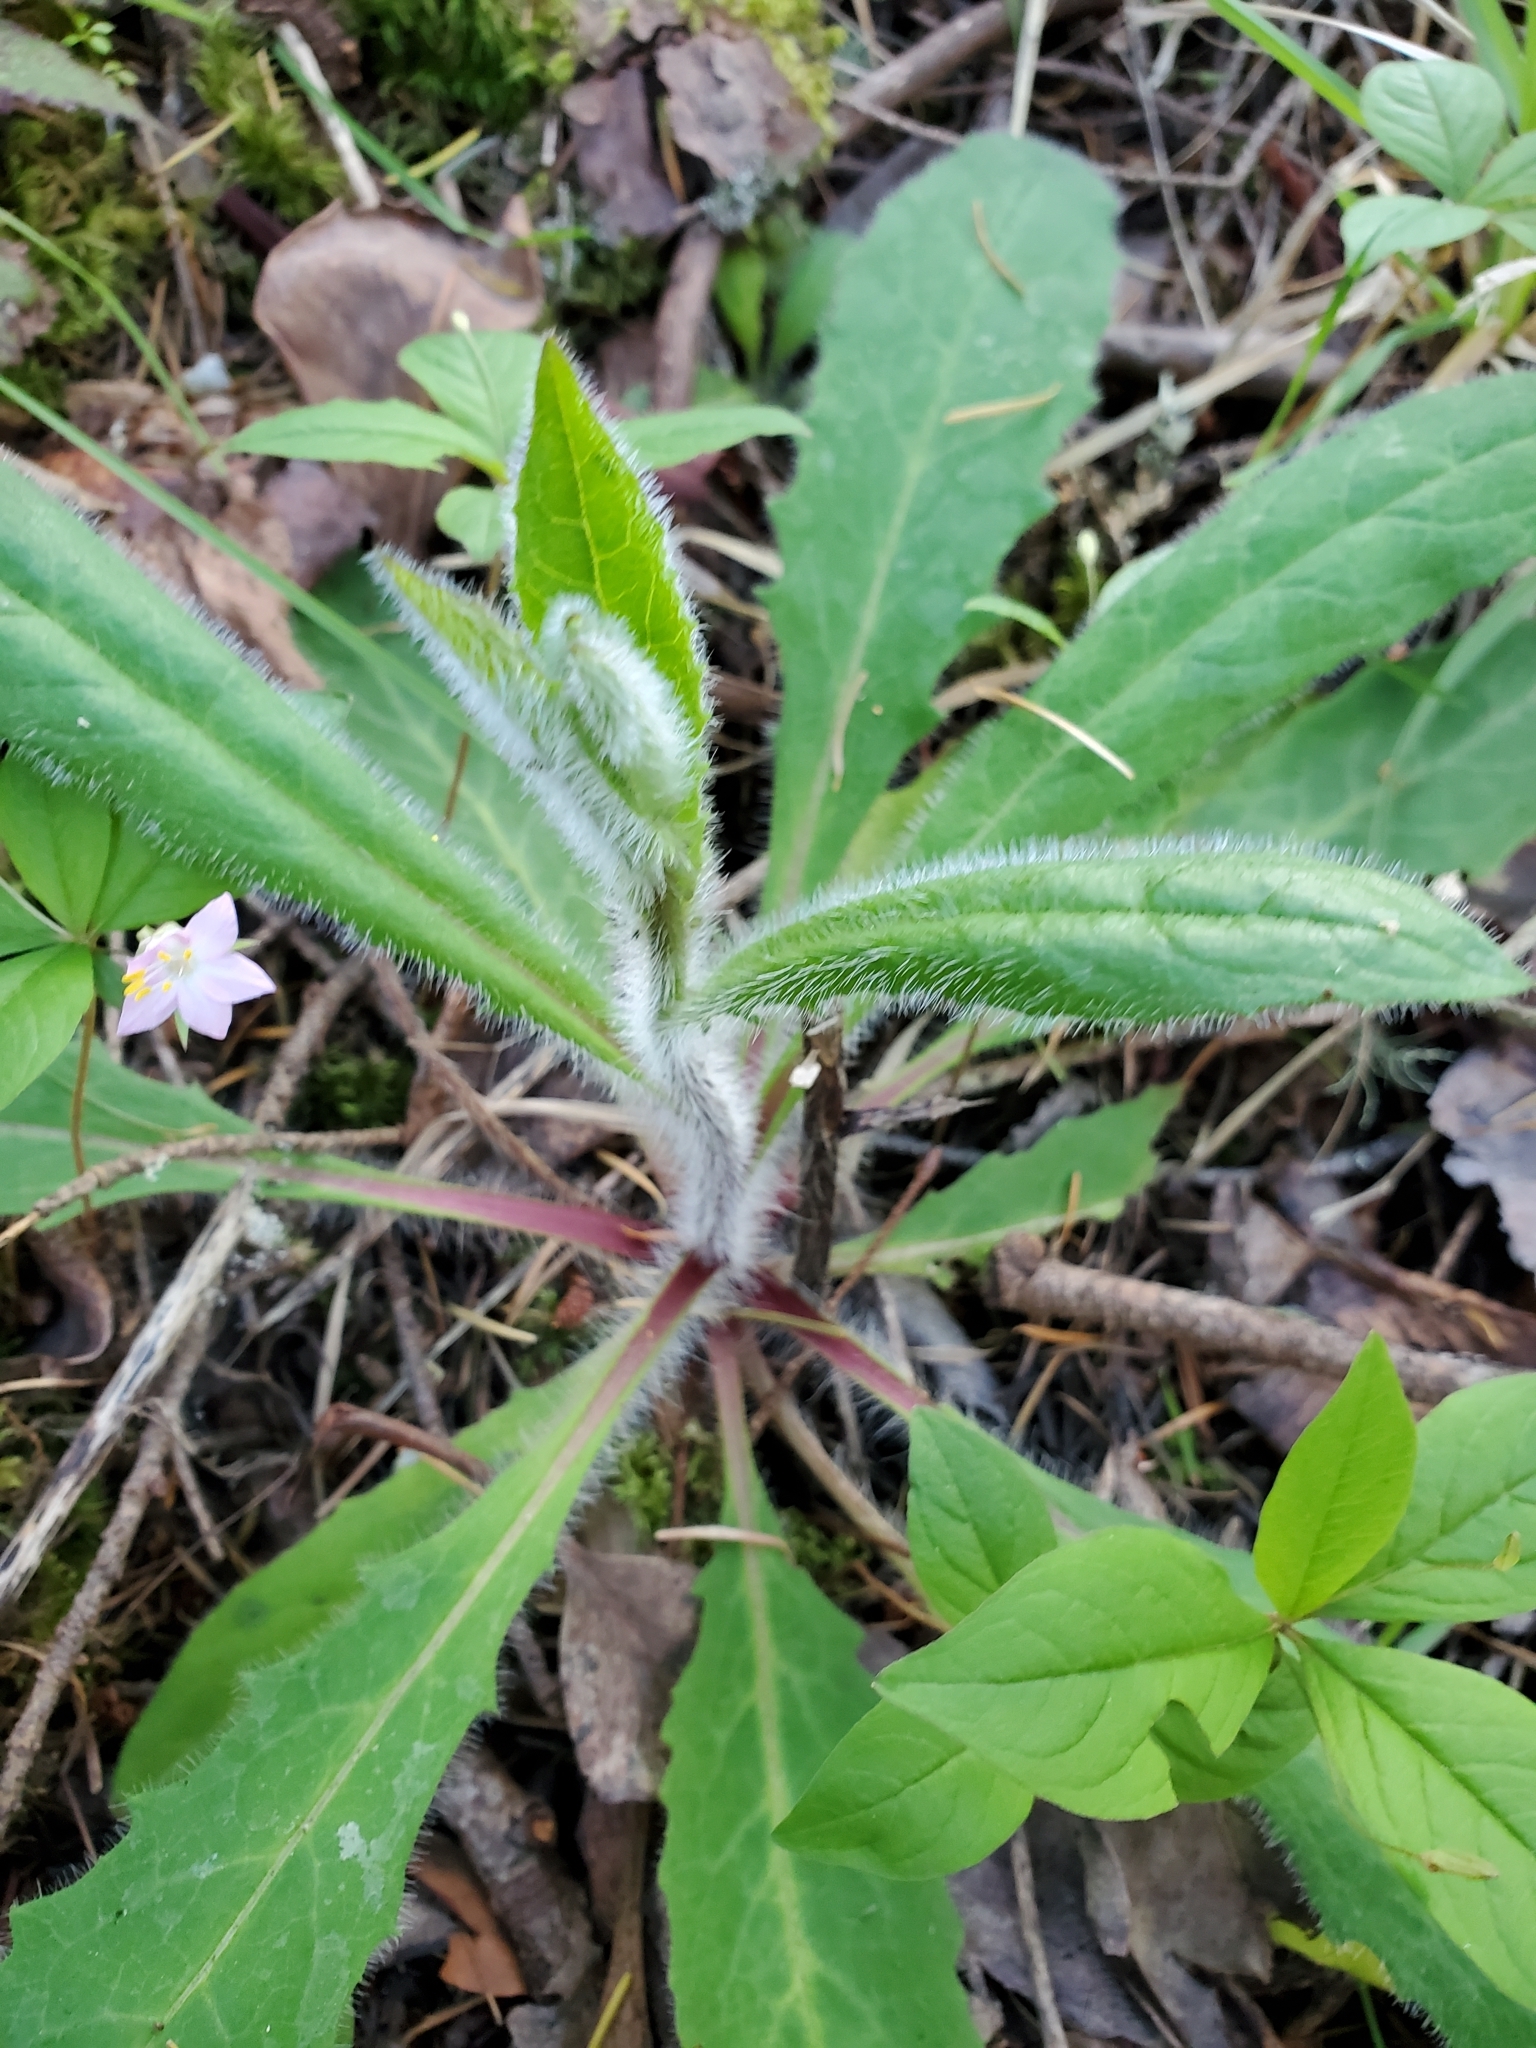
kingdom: Plantae
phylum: Tracheophyta
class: Magnoliopsida
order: Asterales
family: Asteraceae
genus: Hieracium
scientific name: Hieracium albiflorum
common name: White hawkweed
